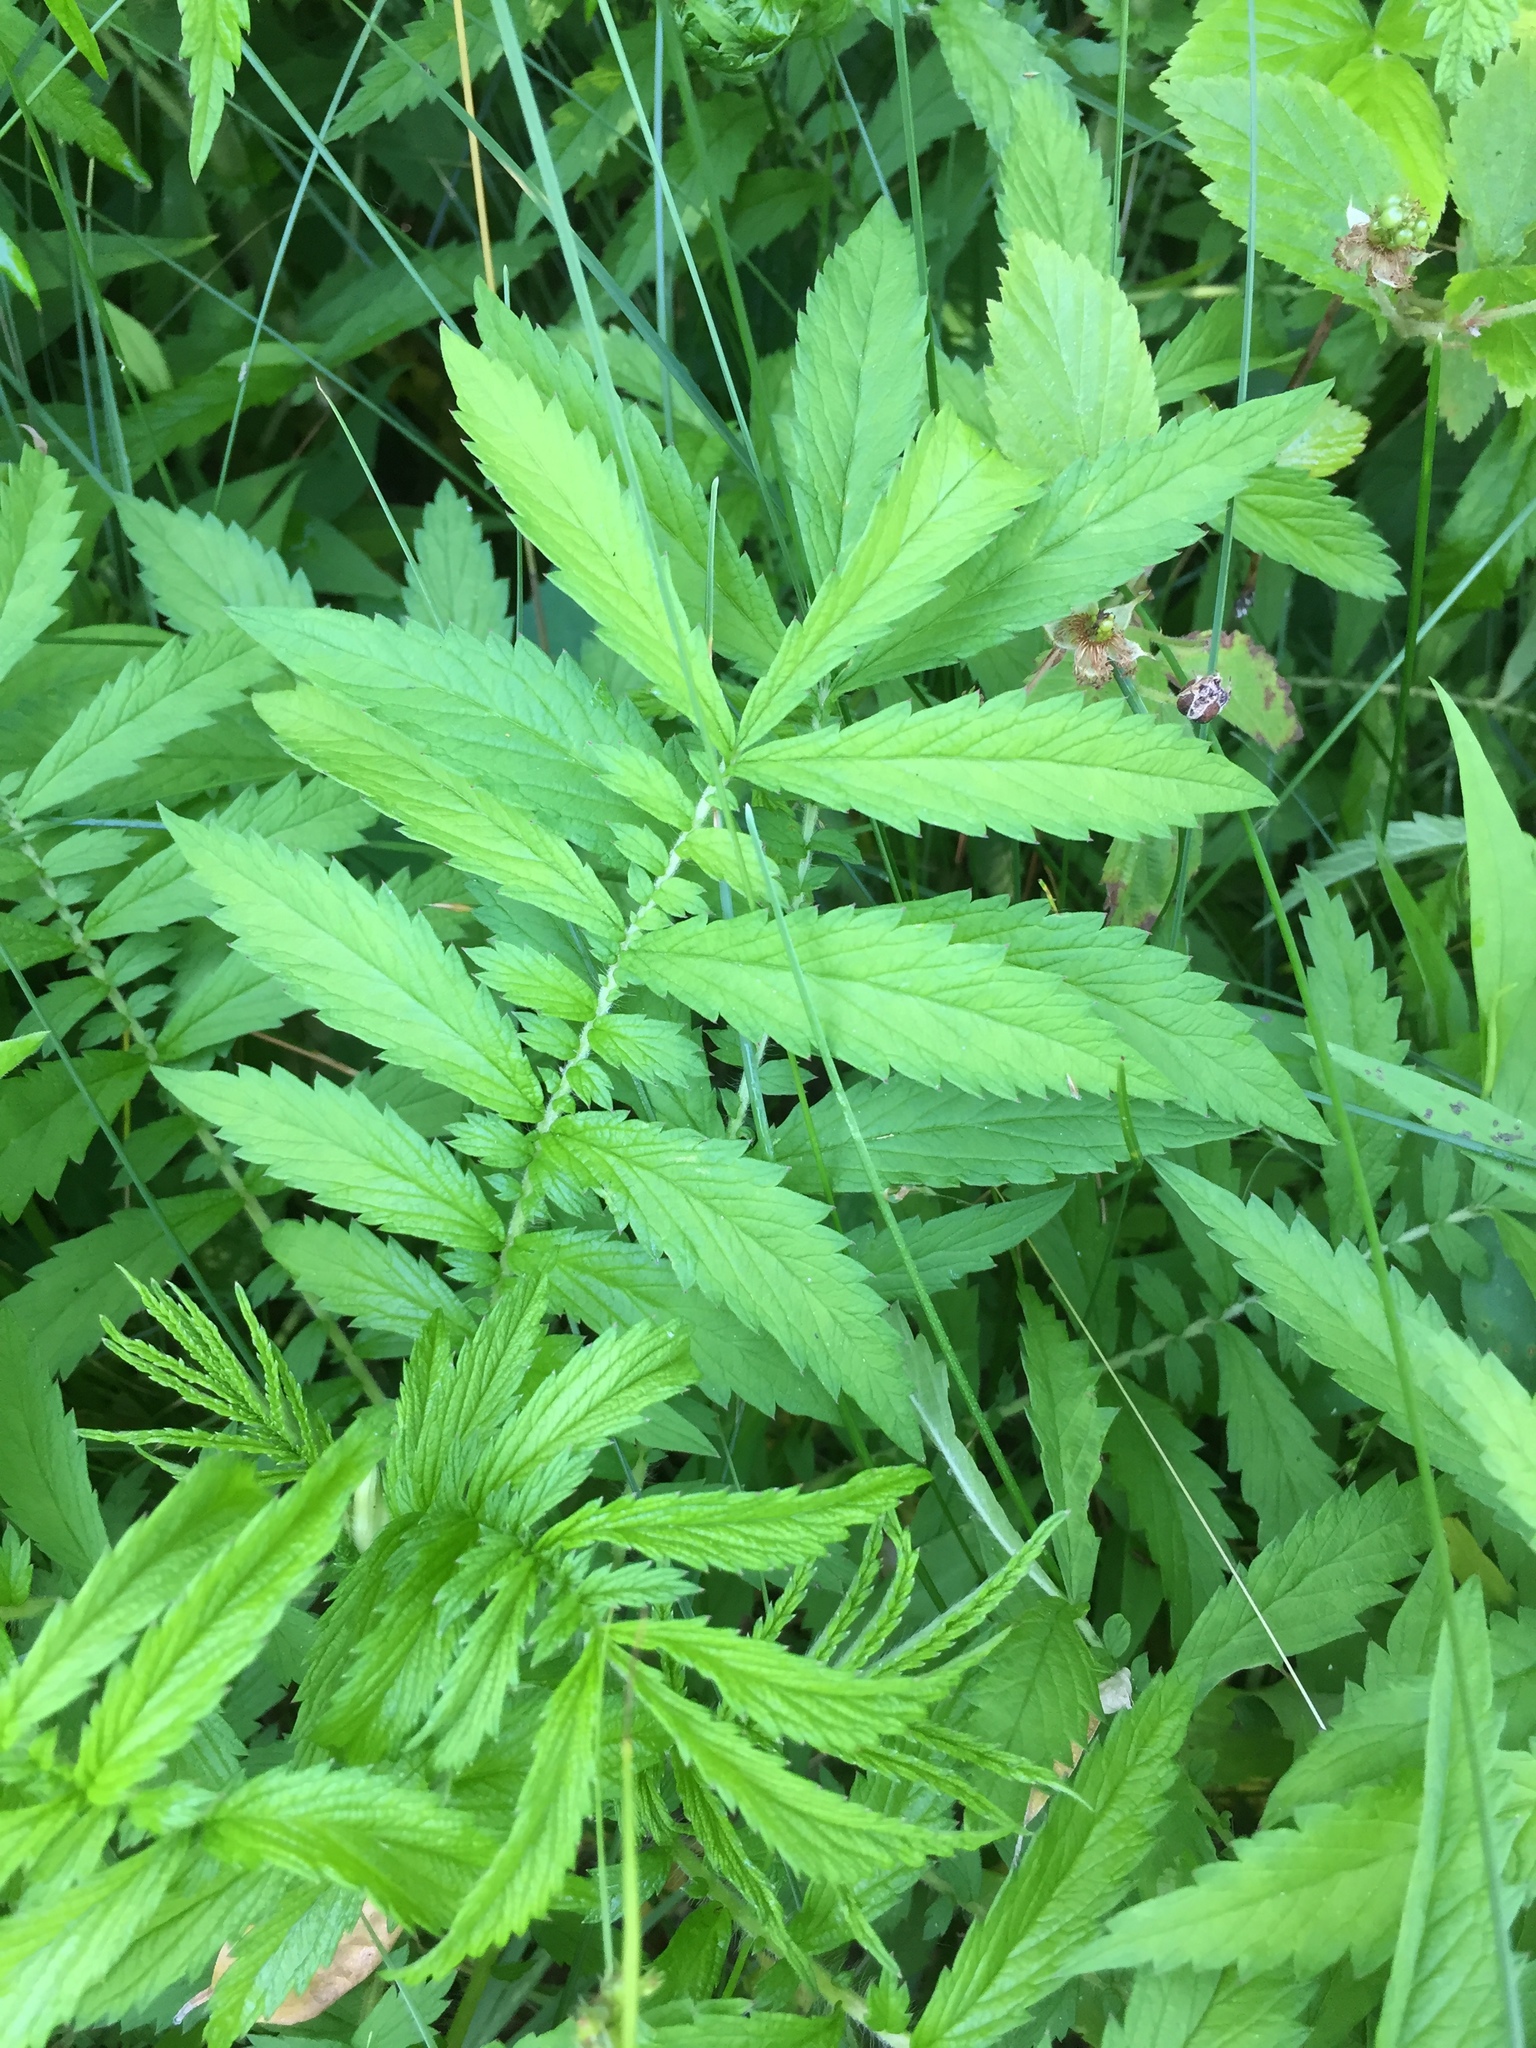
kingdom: Plantae
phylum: Tracheophyta
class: Magnoliopsida
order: Rosales
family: Rosaceae
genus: Agrimonia
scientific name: Agrimonia parviflora
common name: Harvest-lice
